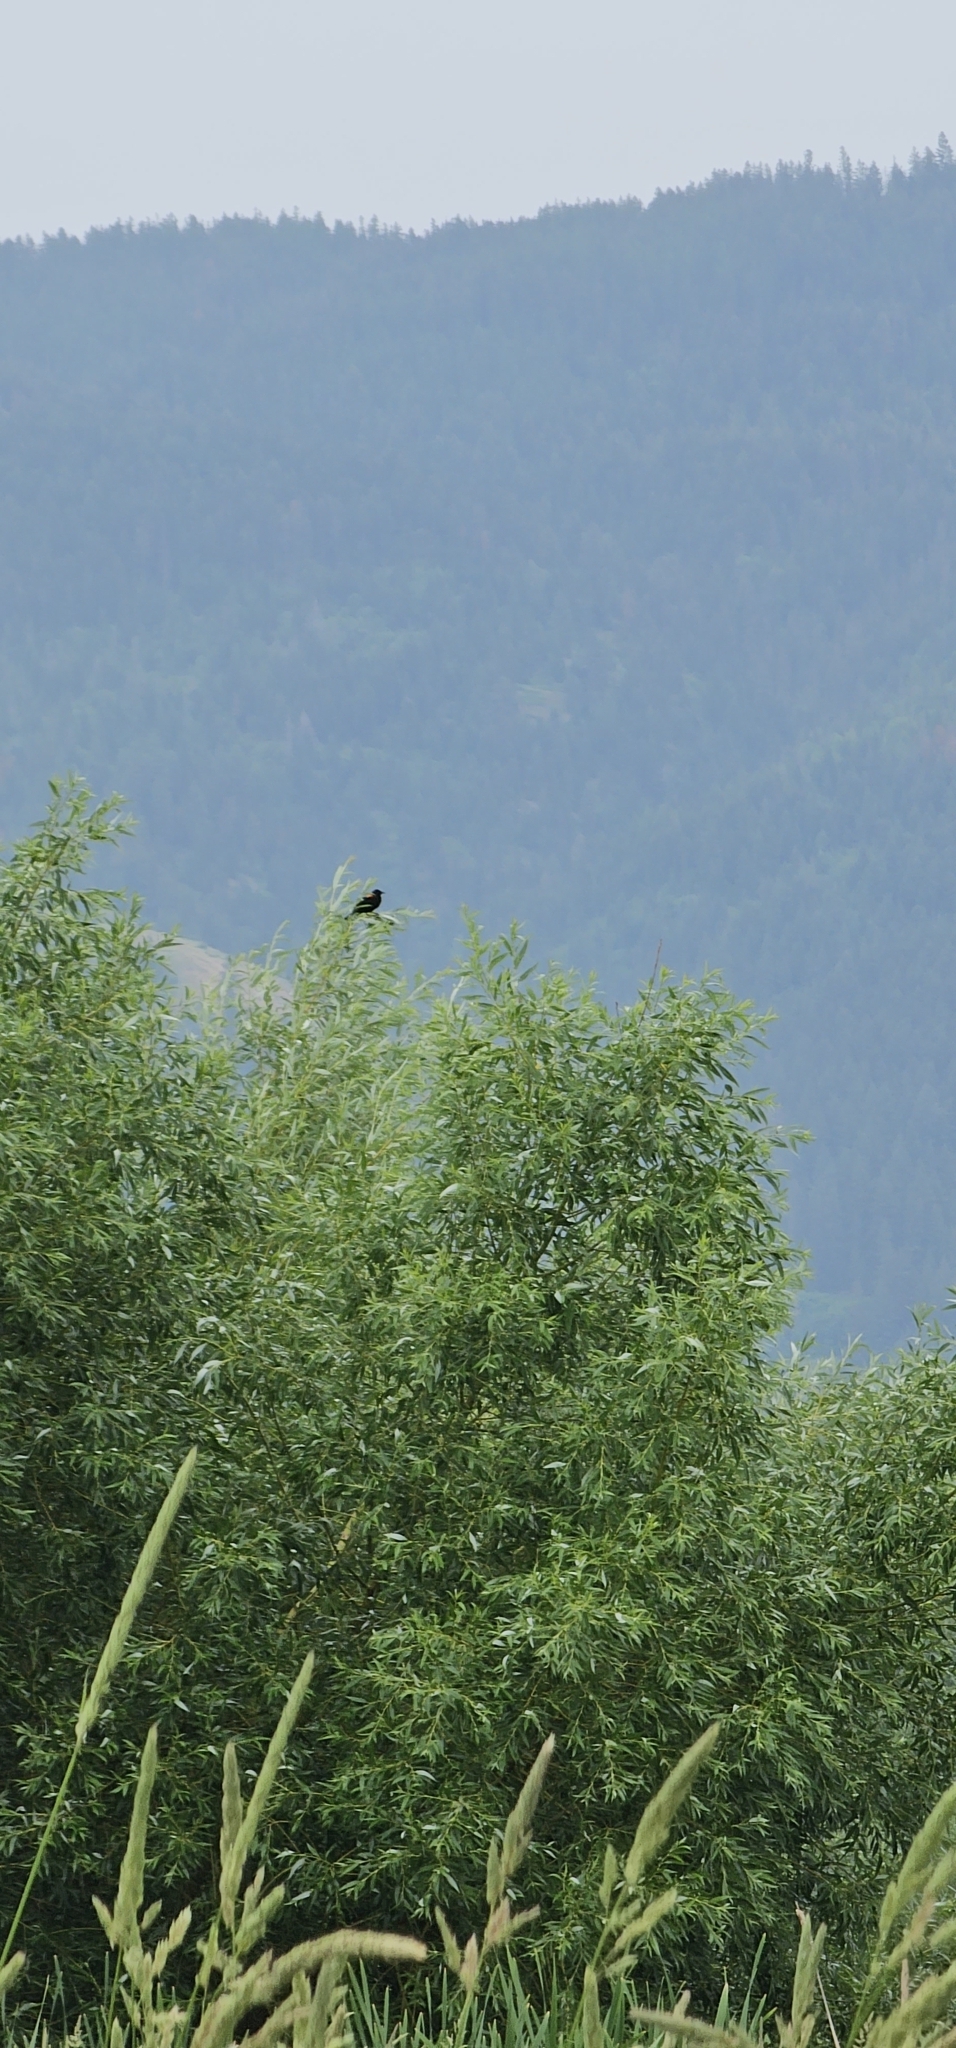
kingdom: Animalia
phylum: Chordata
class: Aves
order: Passeriformes
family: Icteridae
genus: Agelaius
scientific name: Agelaius phoeniceus
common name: Red-winged blackbird
